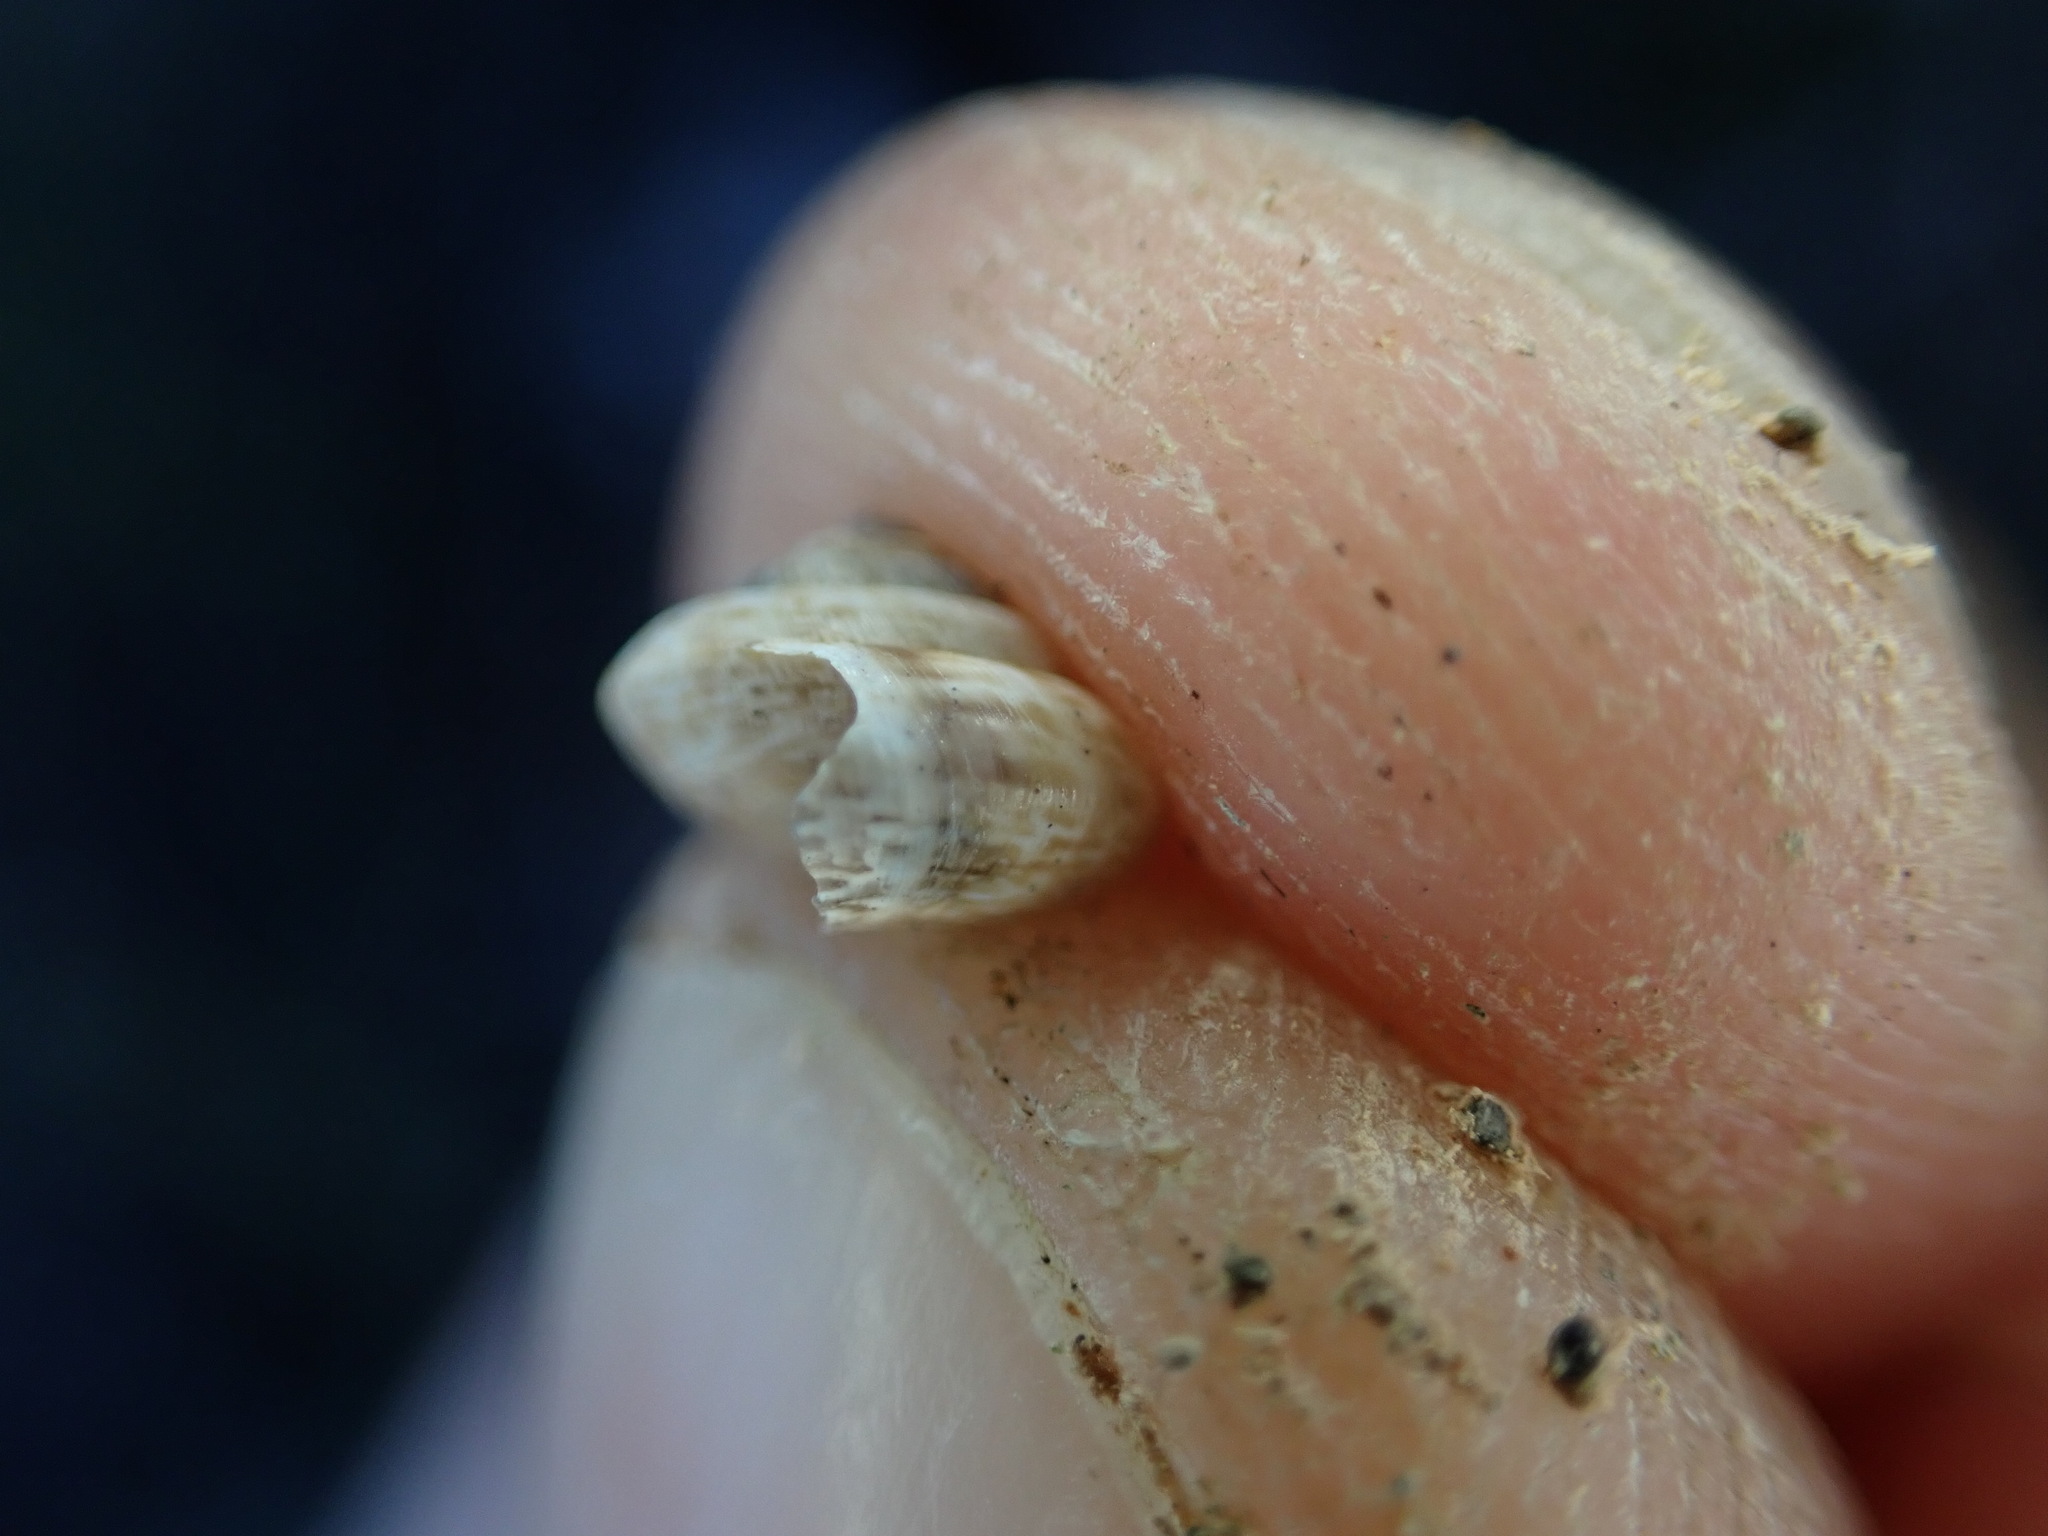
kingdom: Animalia
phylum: Mollusca
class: Gastropoda
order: Stylommatophora
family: Geomitridae
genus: Trochoidea
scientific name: Trochoidea pyramidata
